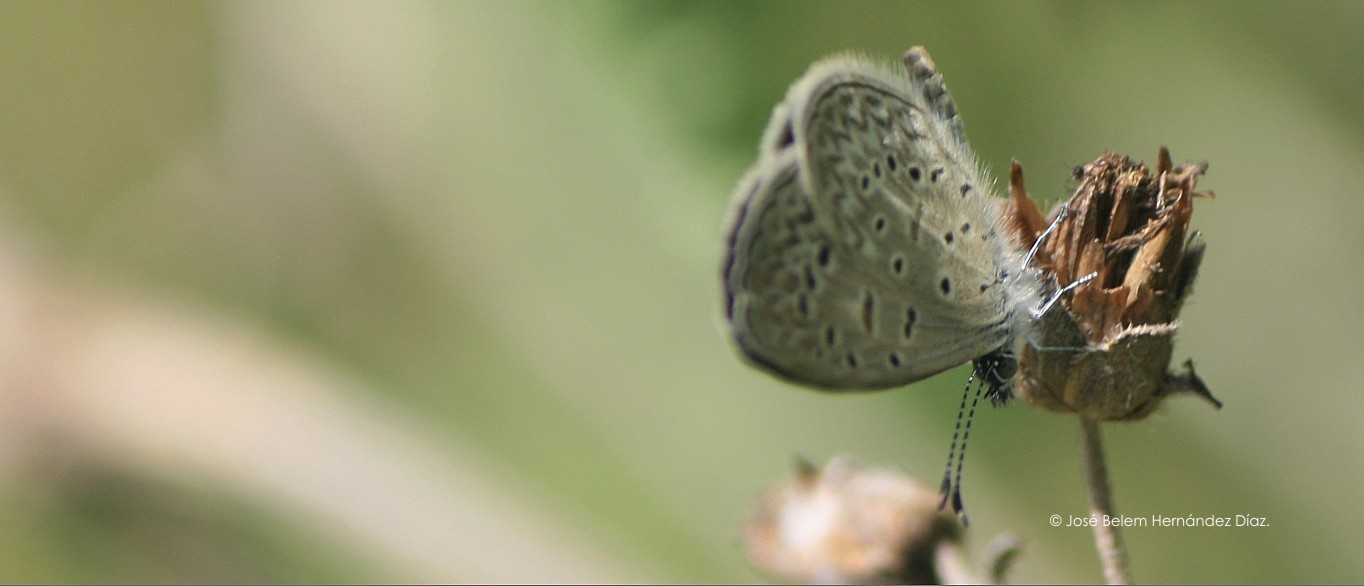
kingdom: Animalia
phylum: Arthropoda
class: Insecta
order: Lepidoptera
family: Lycaenidae
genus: Lycaena
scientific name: Lycaena cyna
